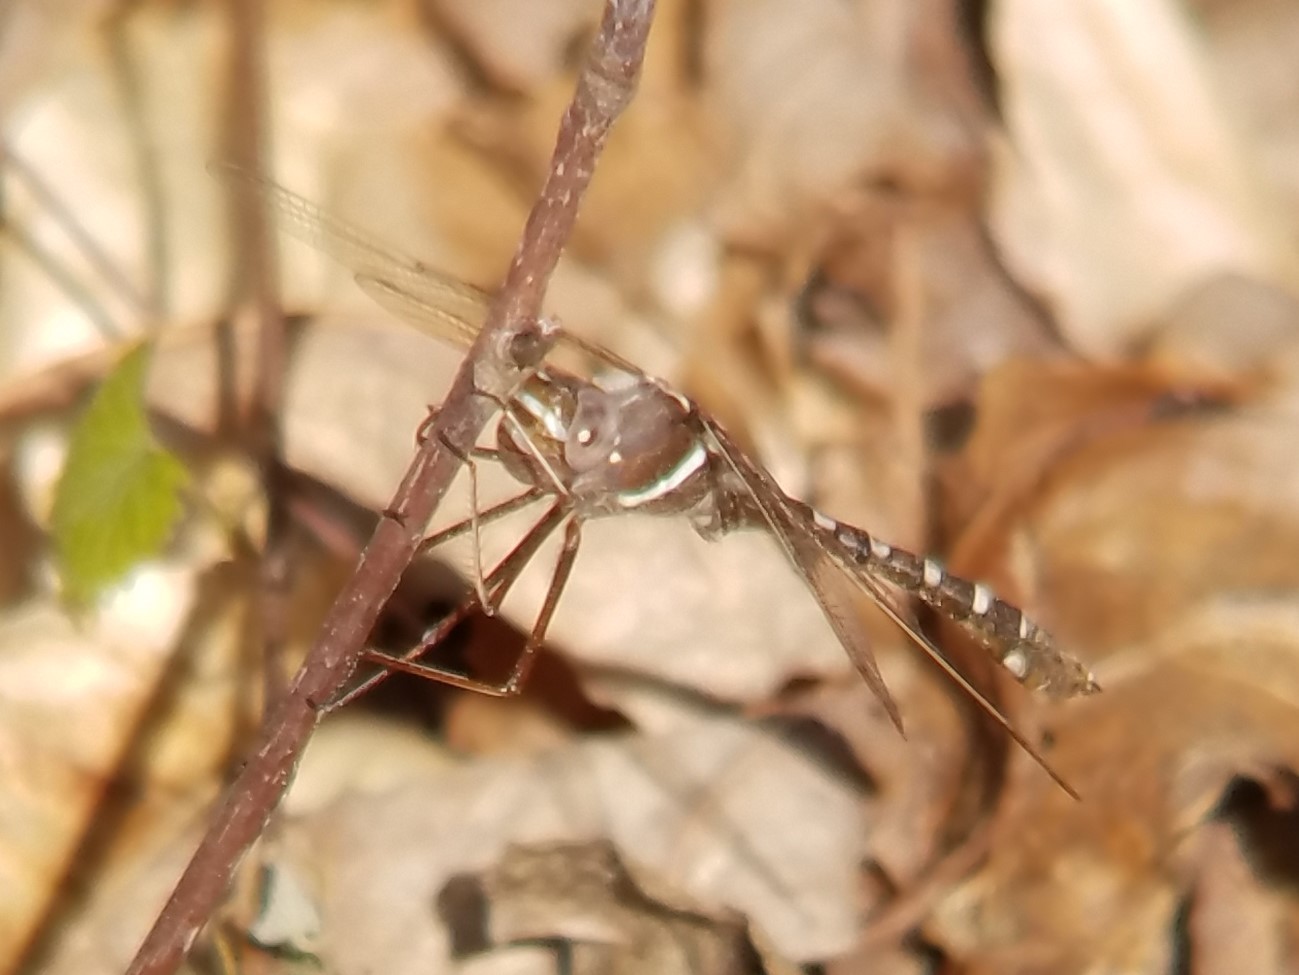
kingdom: Animalia
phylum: Arthropoda
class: Insecta
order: Odonata
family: Macromiidae
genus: Didymops
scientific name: Didymops transversa
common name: Stream cruiser
